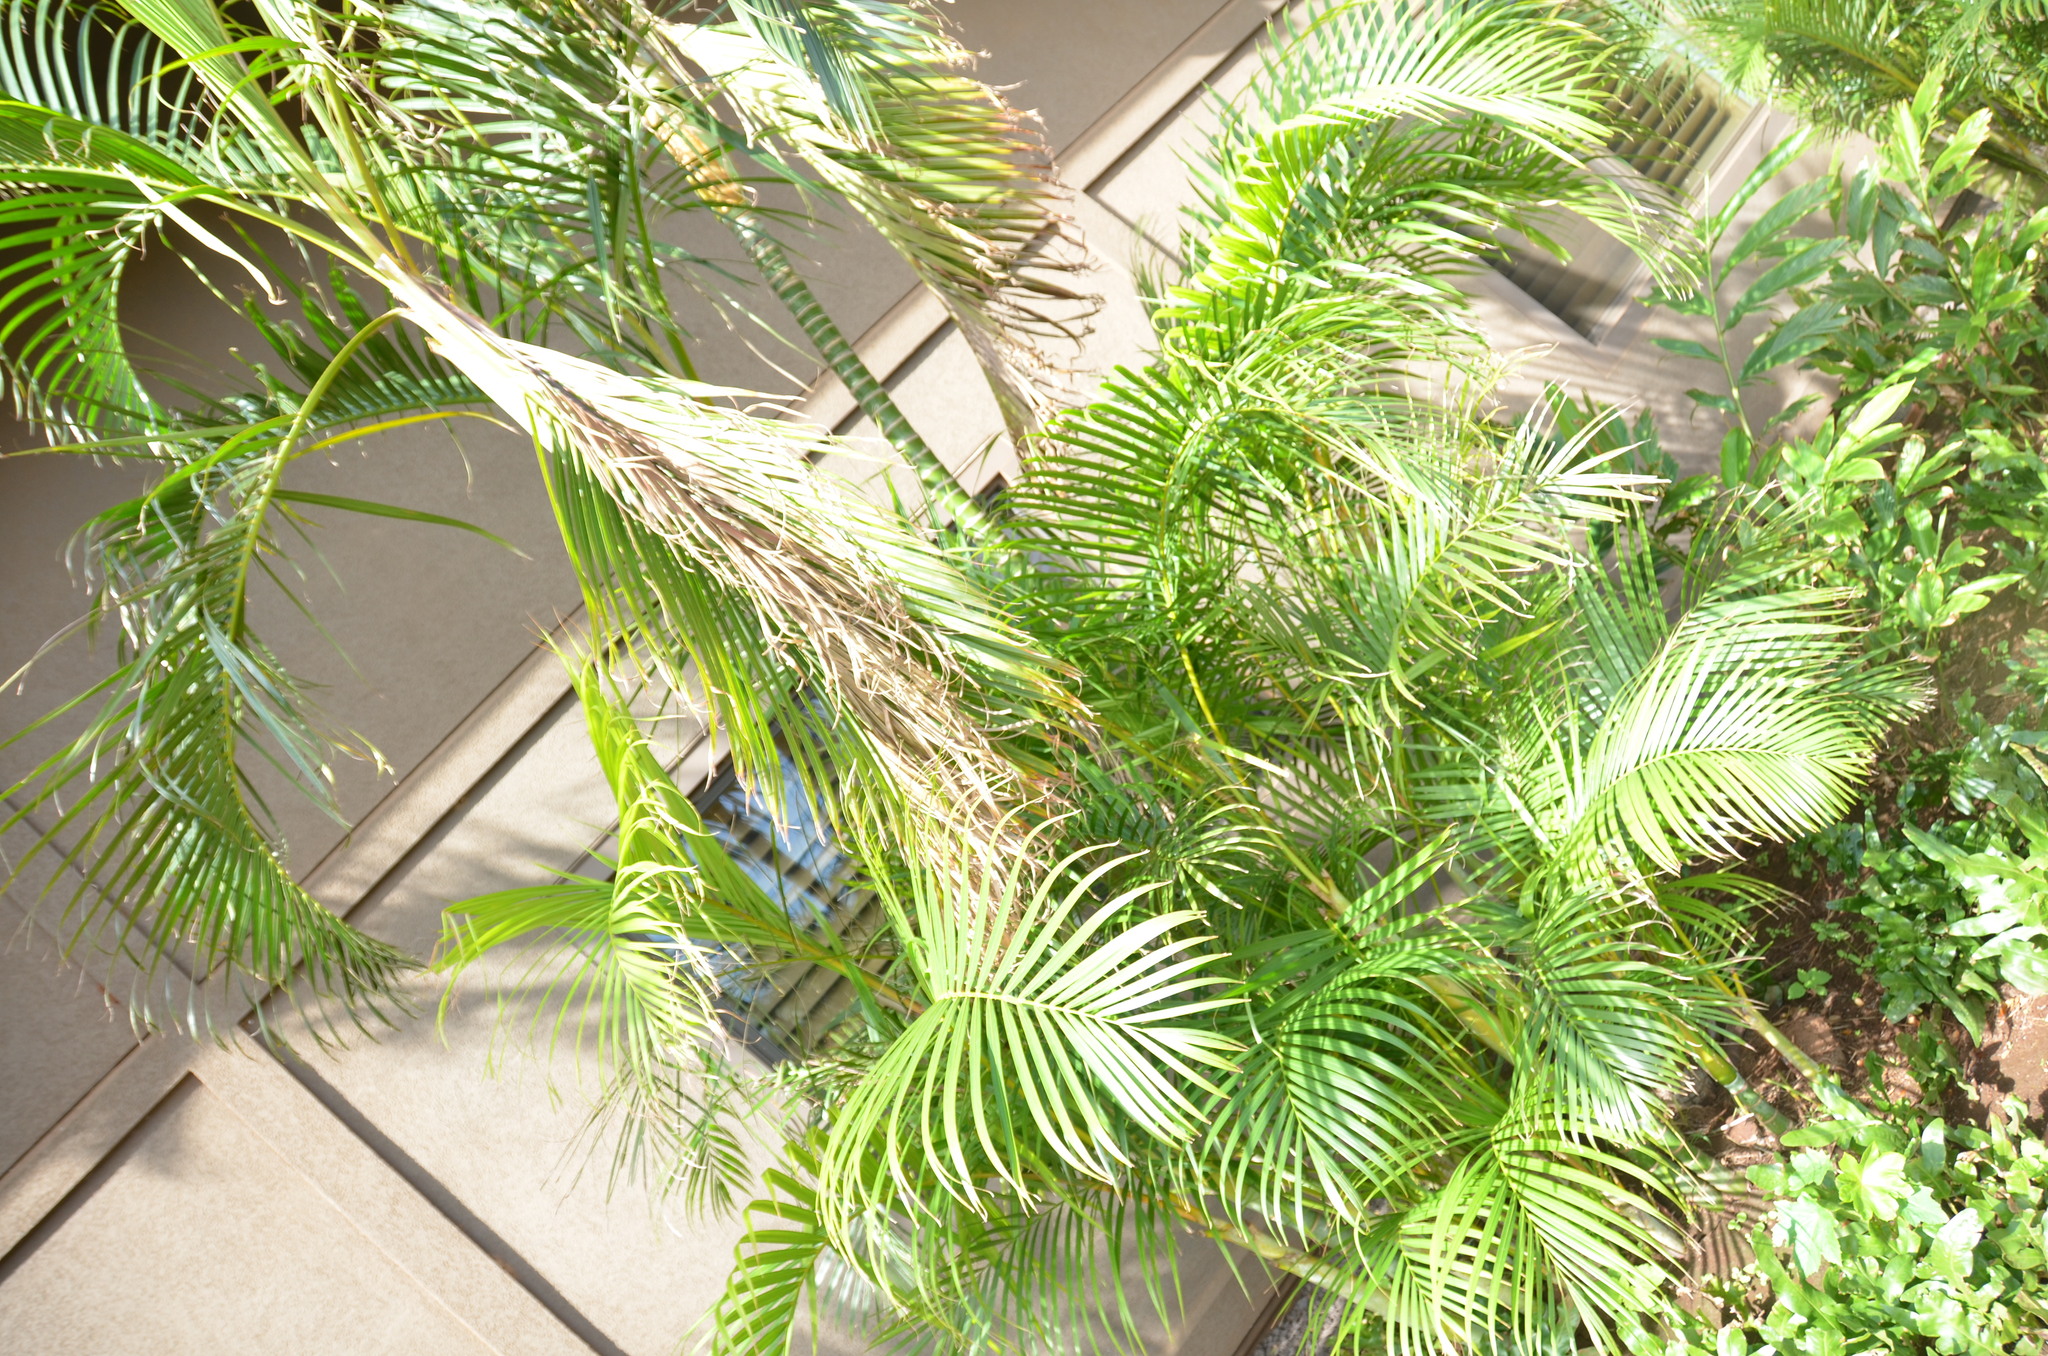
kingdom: Plantae
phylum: Tracheophyta
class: Liliopsida
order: Arecales
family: Arecaceae
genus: Dypsis
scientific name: Dypsis lutescens
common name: Yellow butterfly palm
